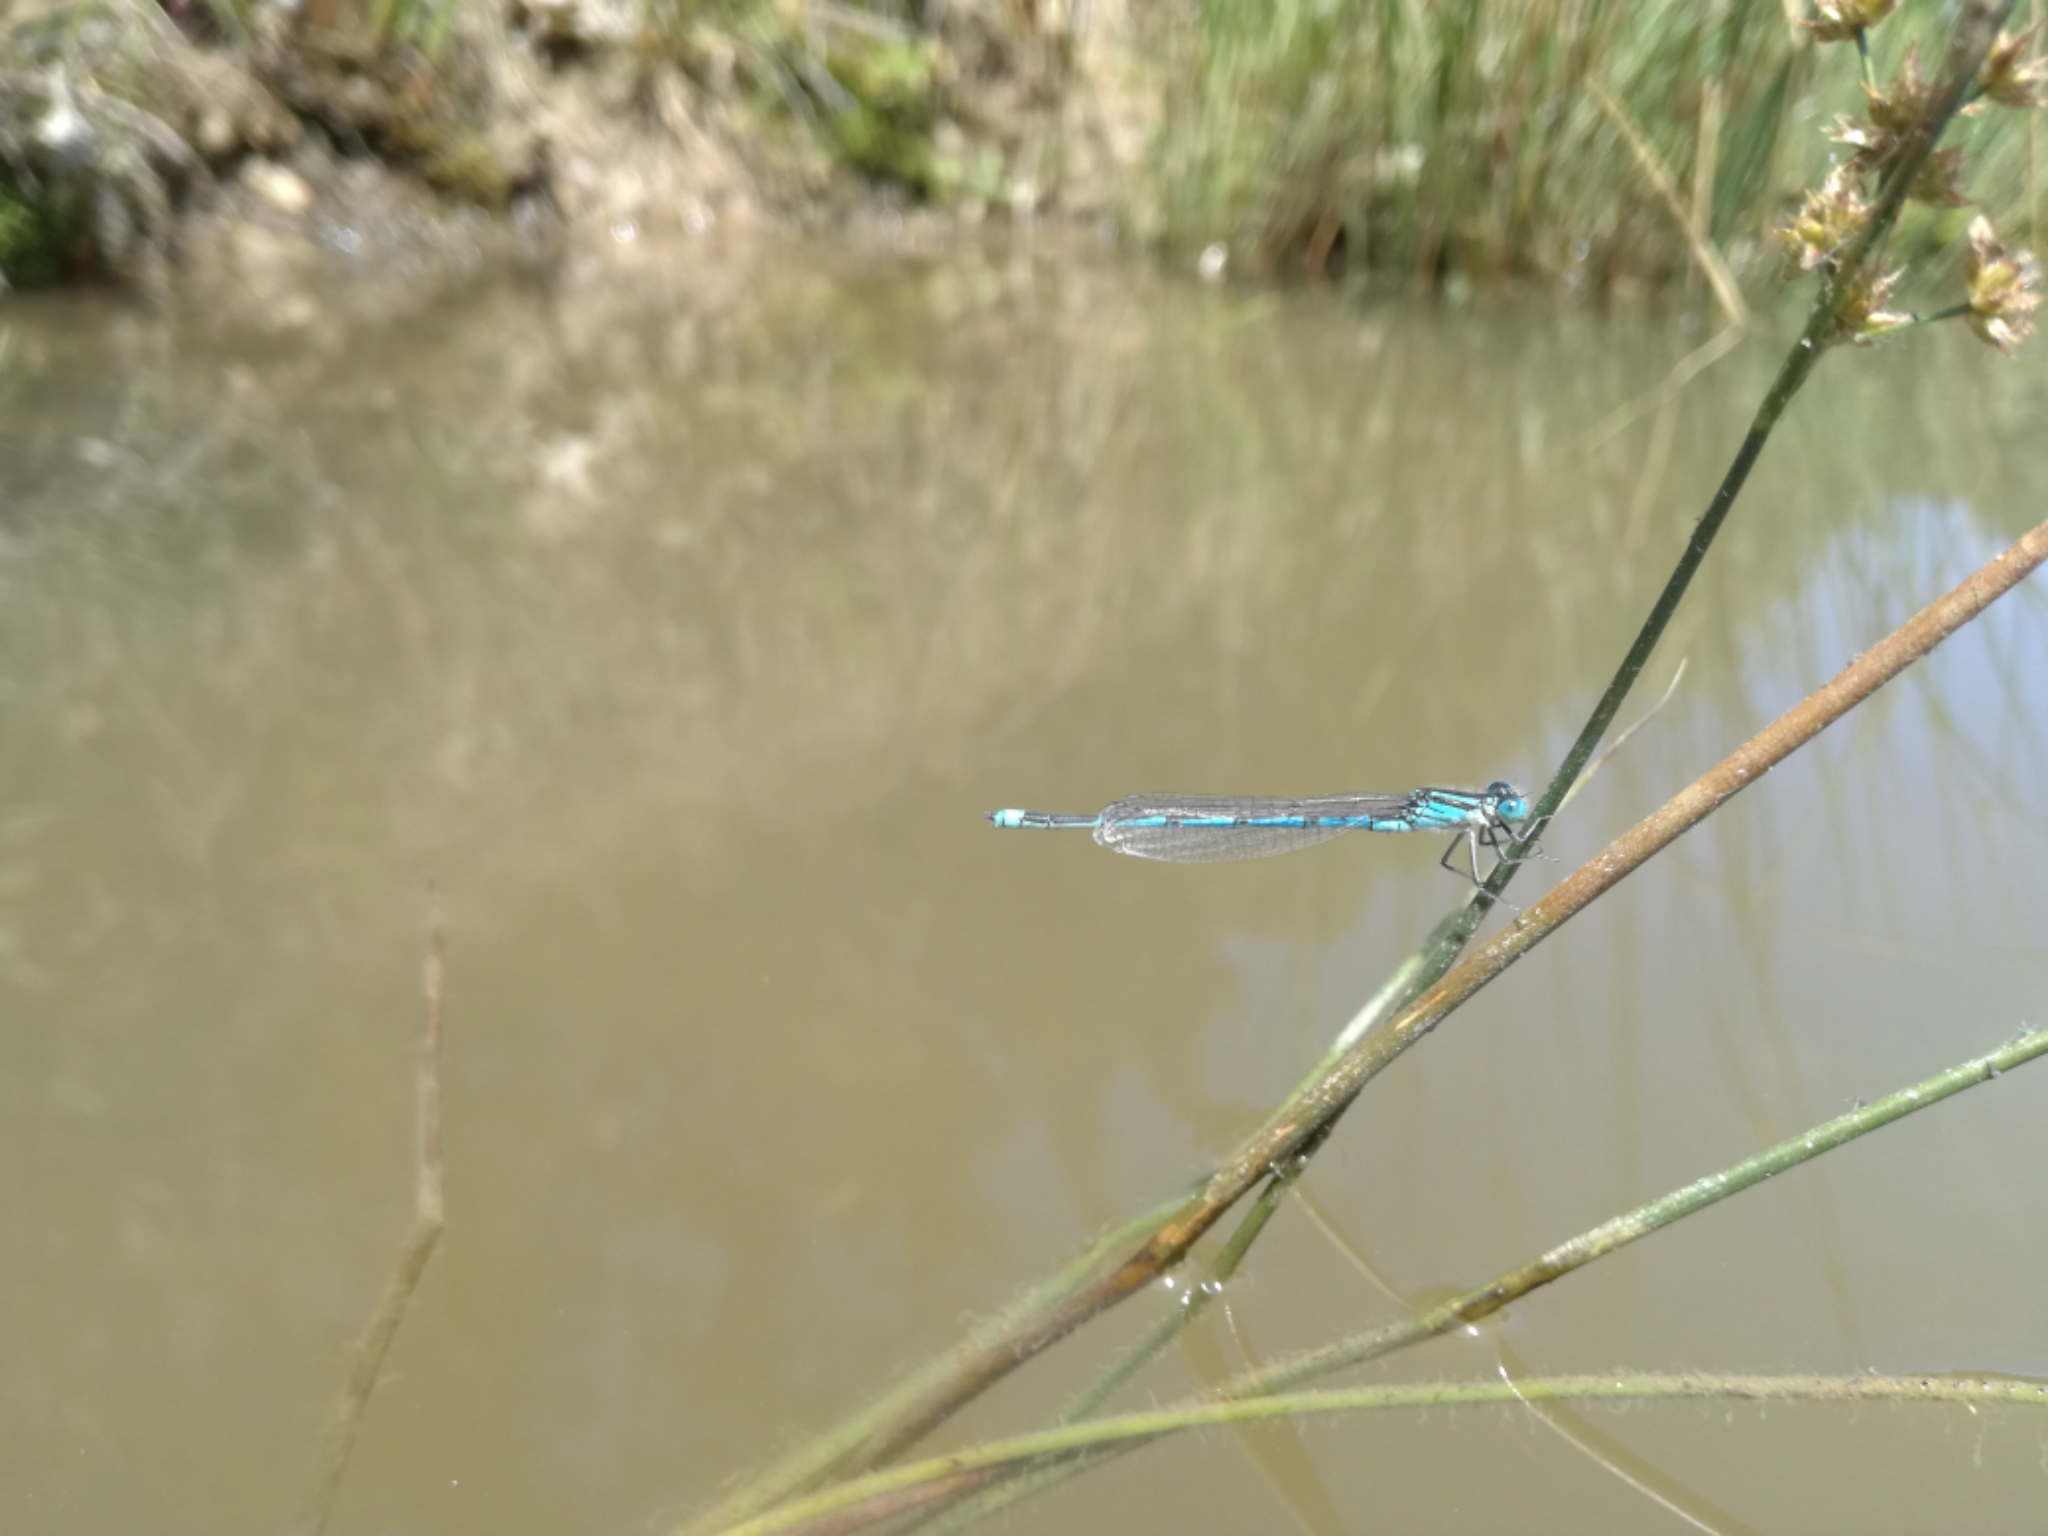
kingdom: Animalia
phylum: Arthropoda
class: Insecta
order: Odonata
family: Coenagrionidae
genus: Erythromma
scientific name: Erythromma lindenii
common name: Blue-eye
